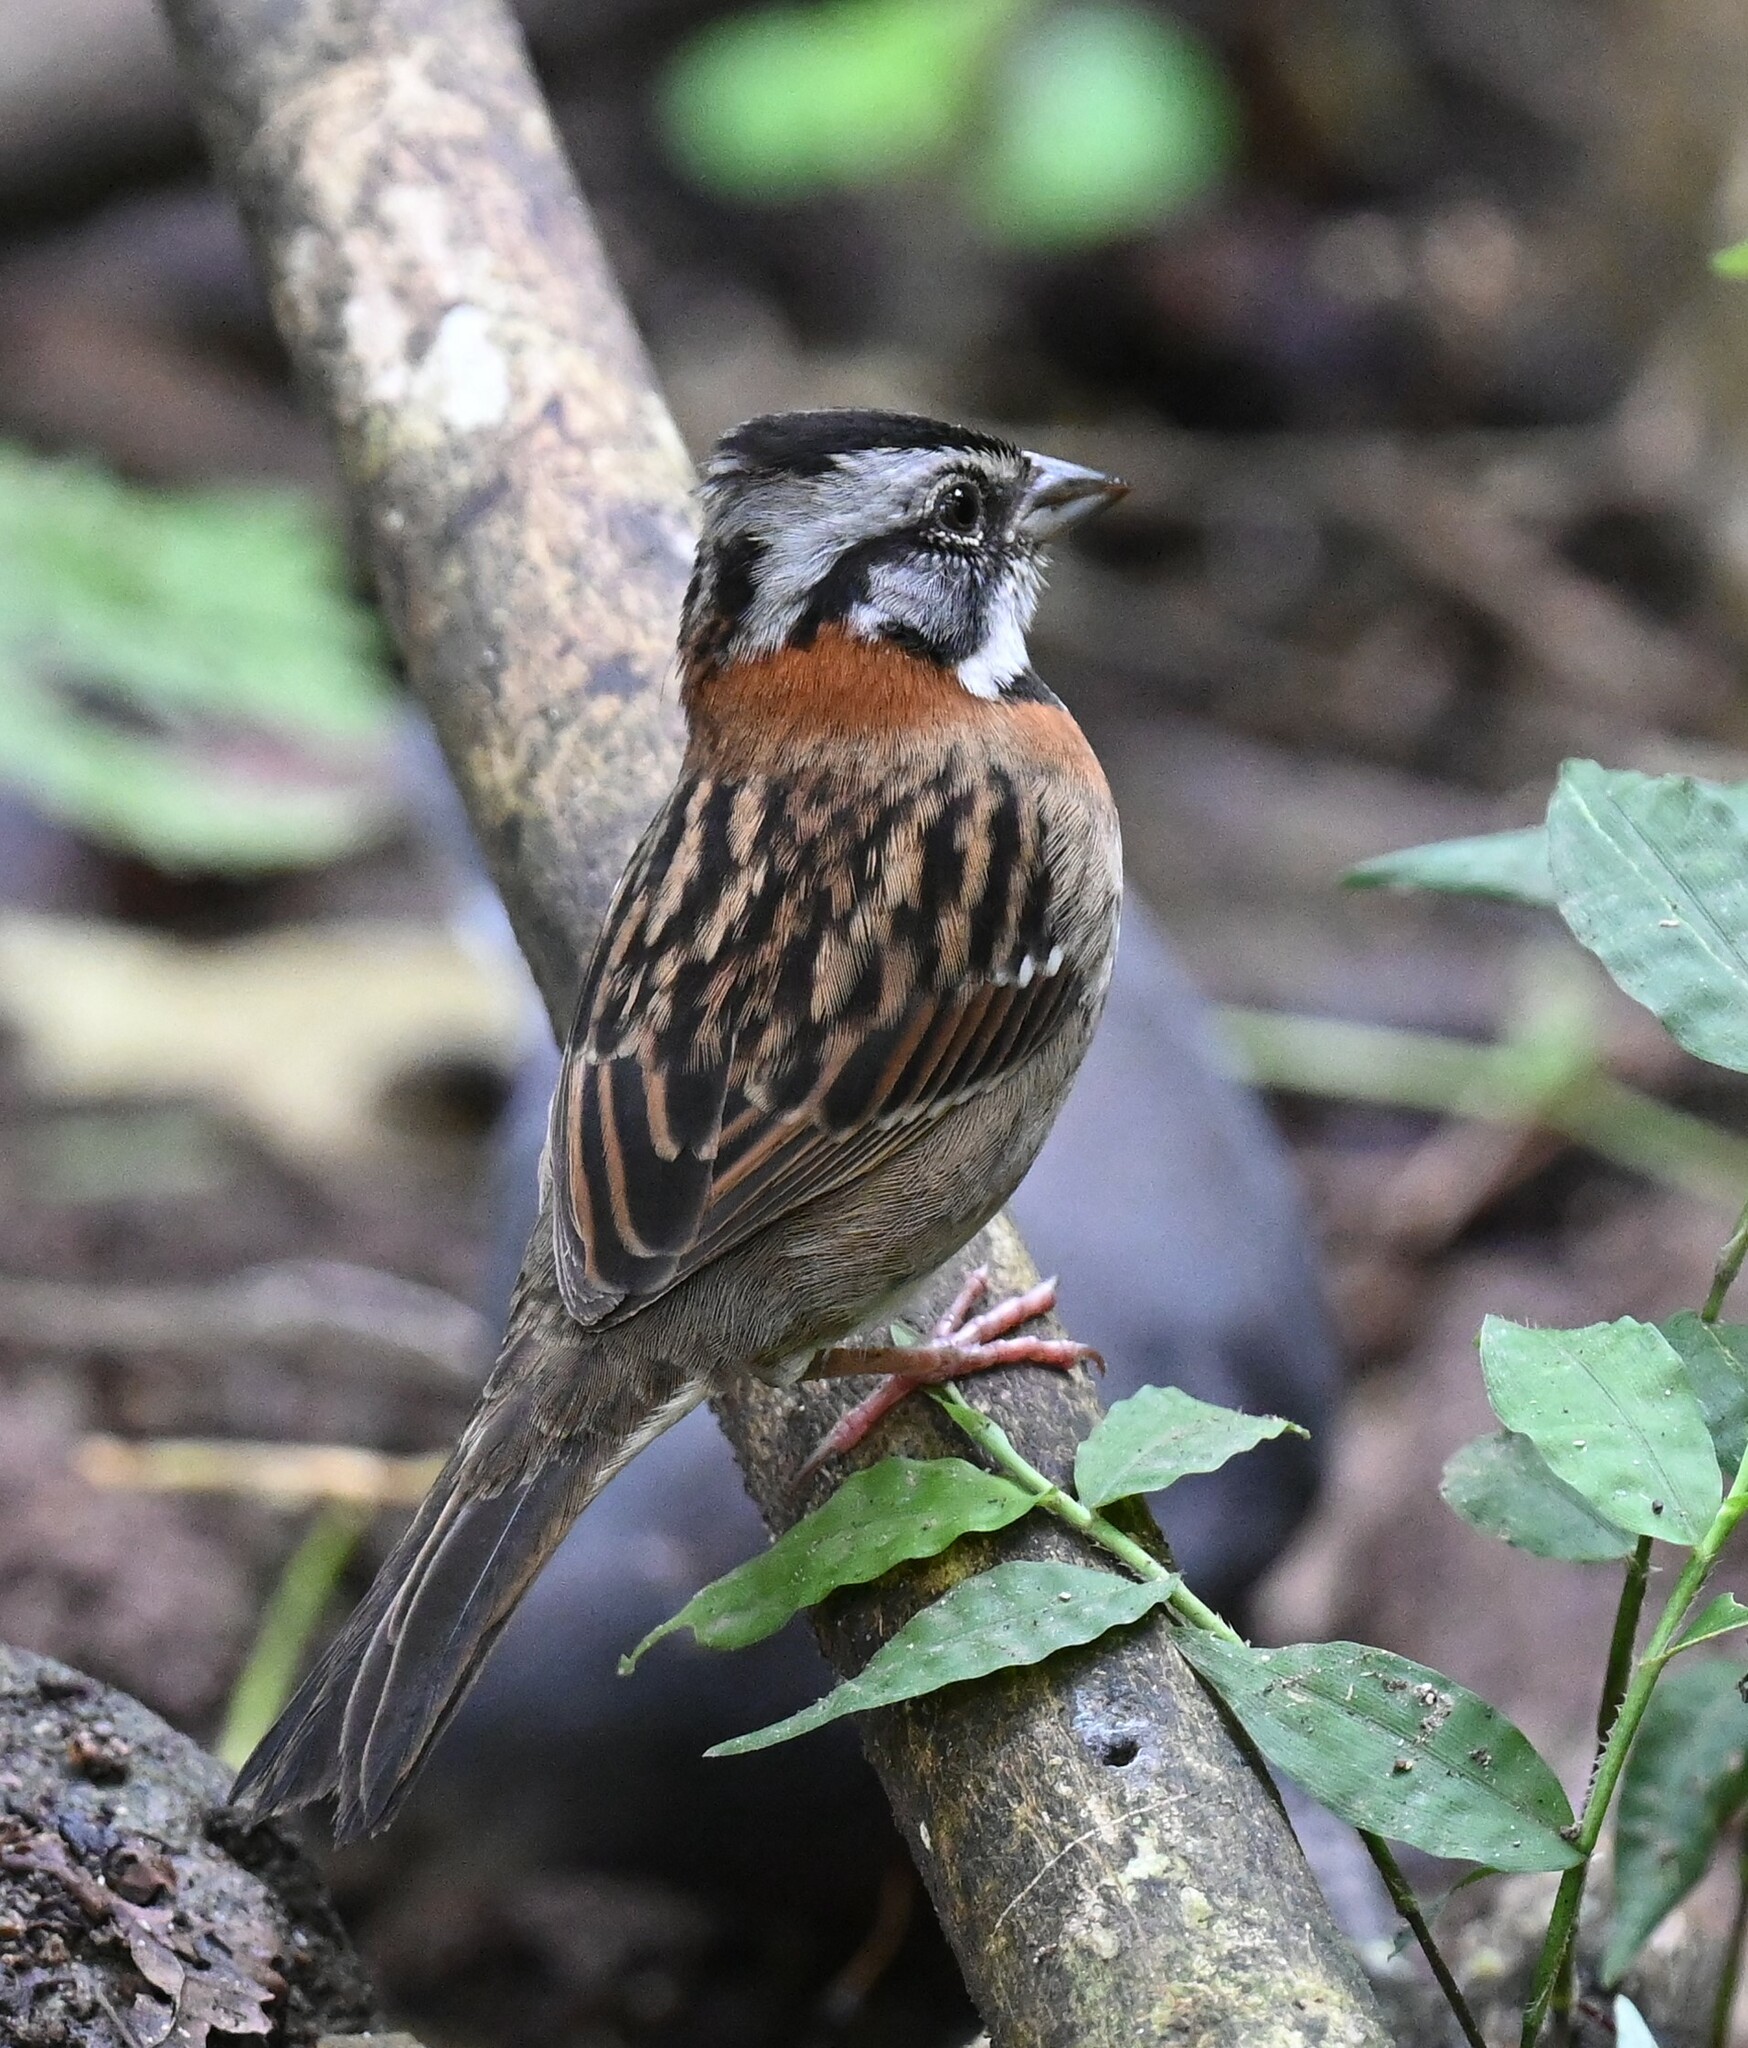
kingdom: Animalia
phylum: Chordata
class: Aves
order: Passeriformes
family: Passerellidae
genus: Zonotrichia
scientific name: Zonotrichia capensis
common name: Rufous-collared sparrow
